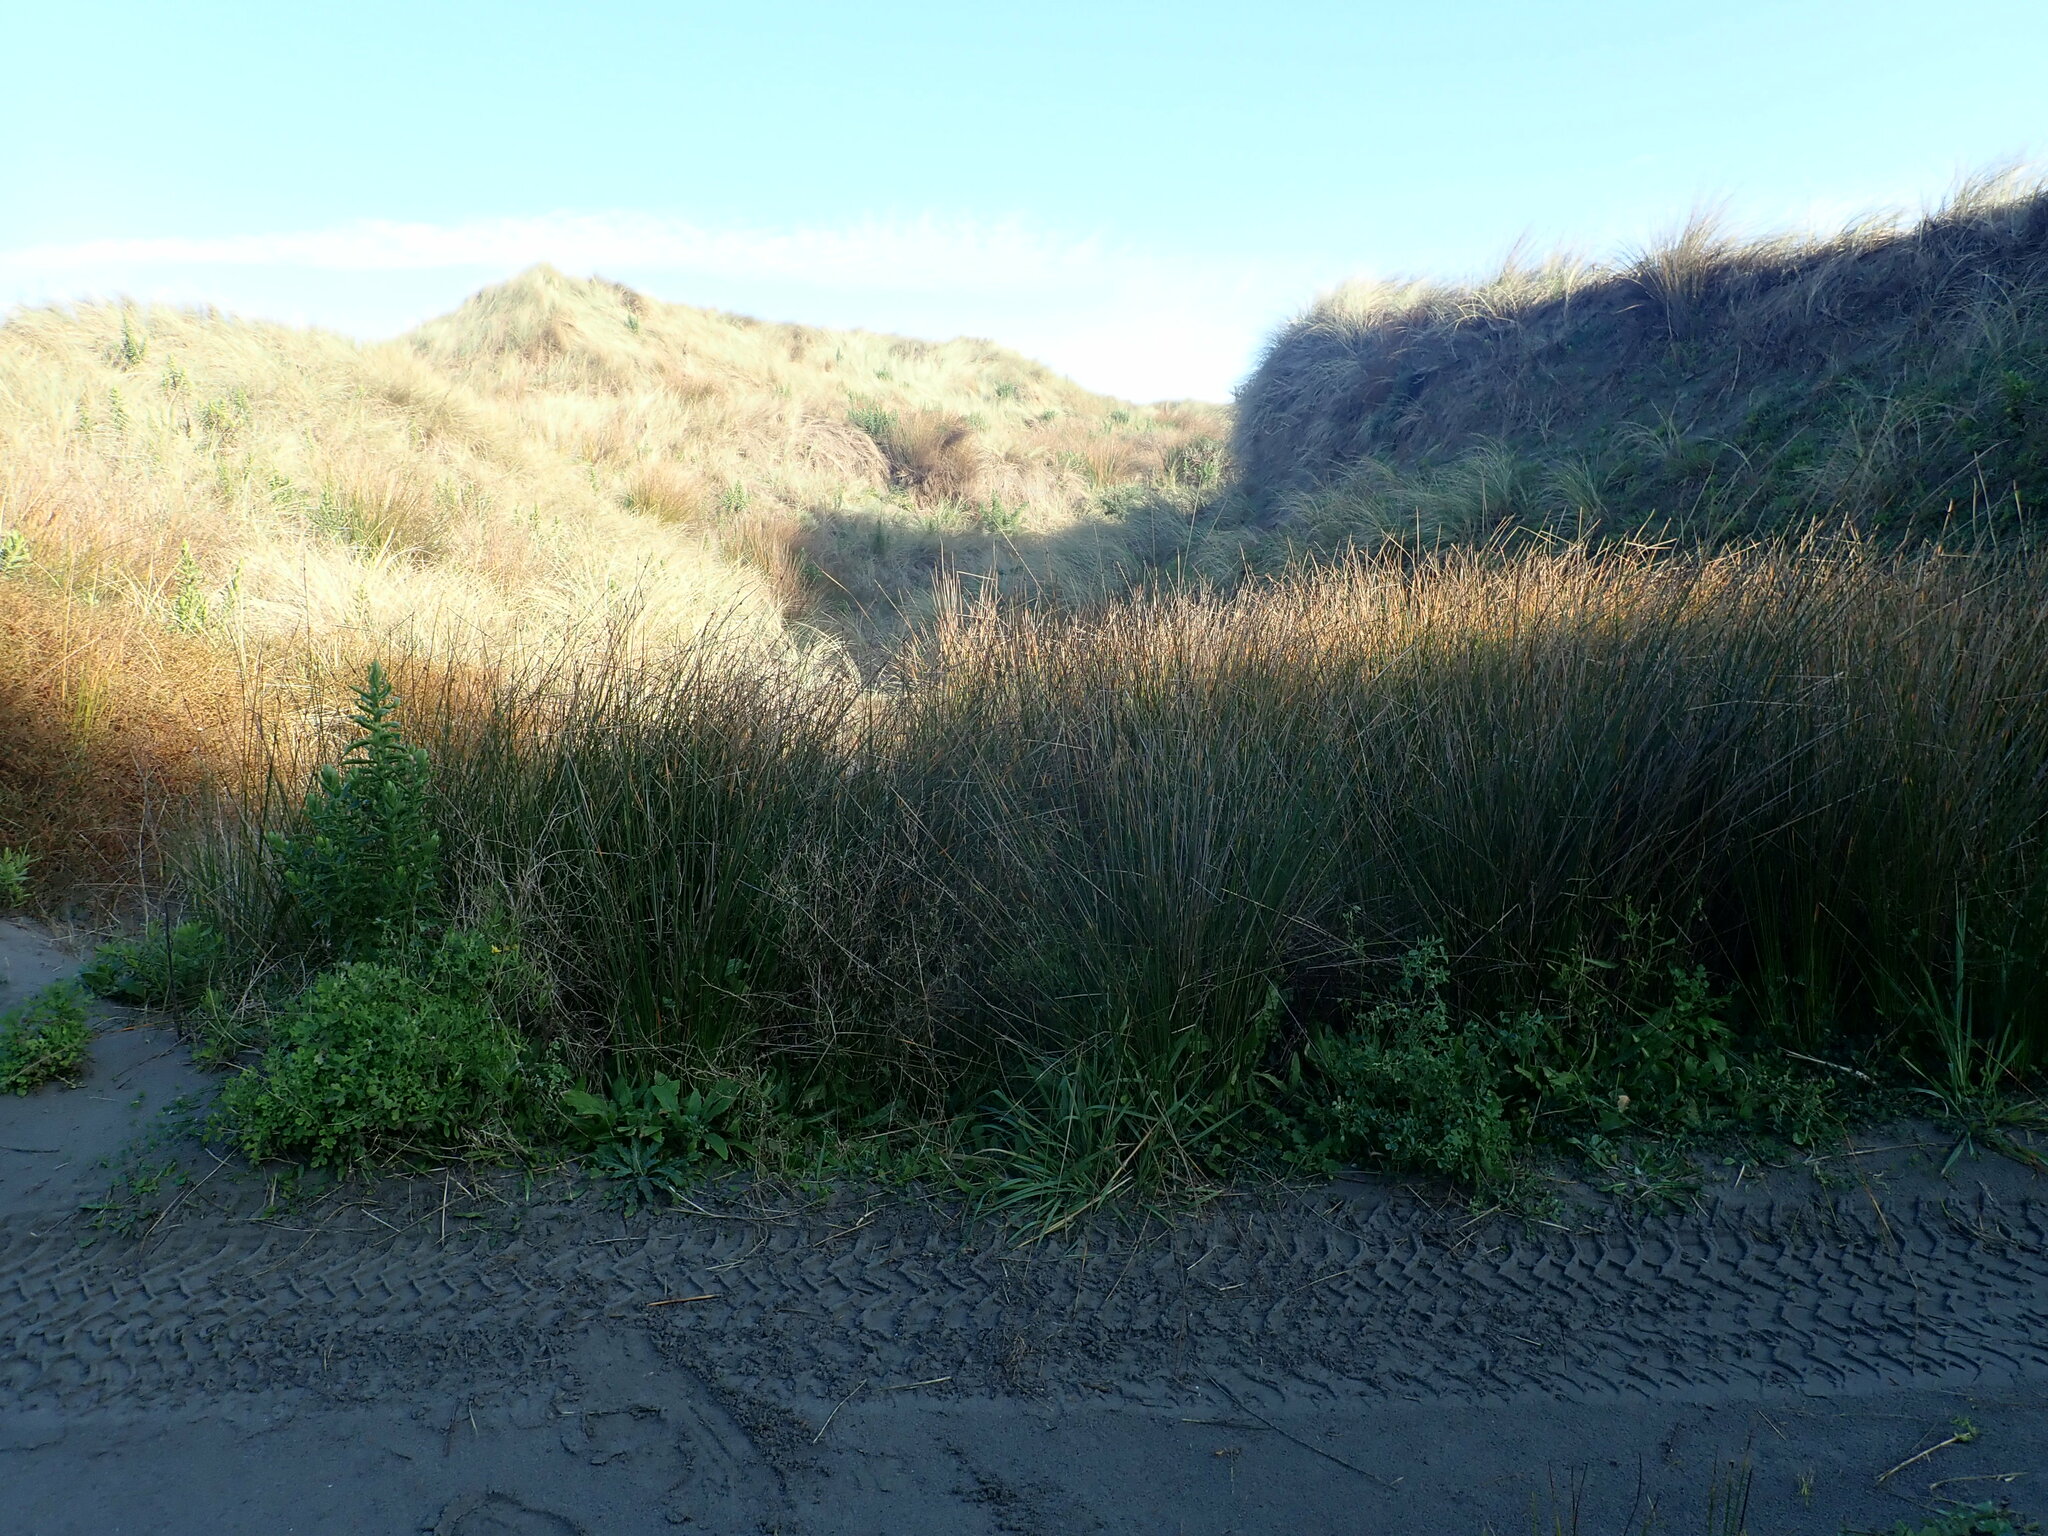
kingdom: Plantae
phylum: Tracheophyta
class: Liliopsida
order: Poales
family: Cyperaceae
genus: Ficinia
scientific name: Ficinia nodosa
